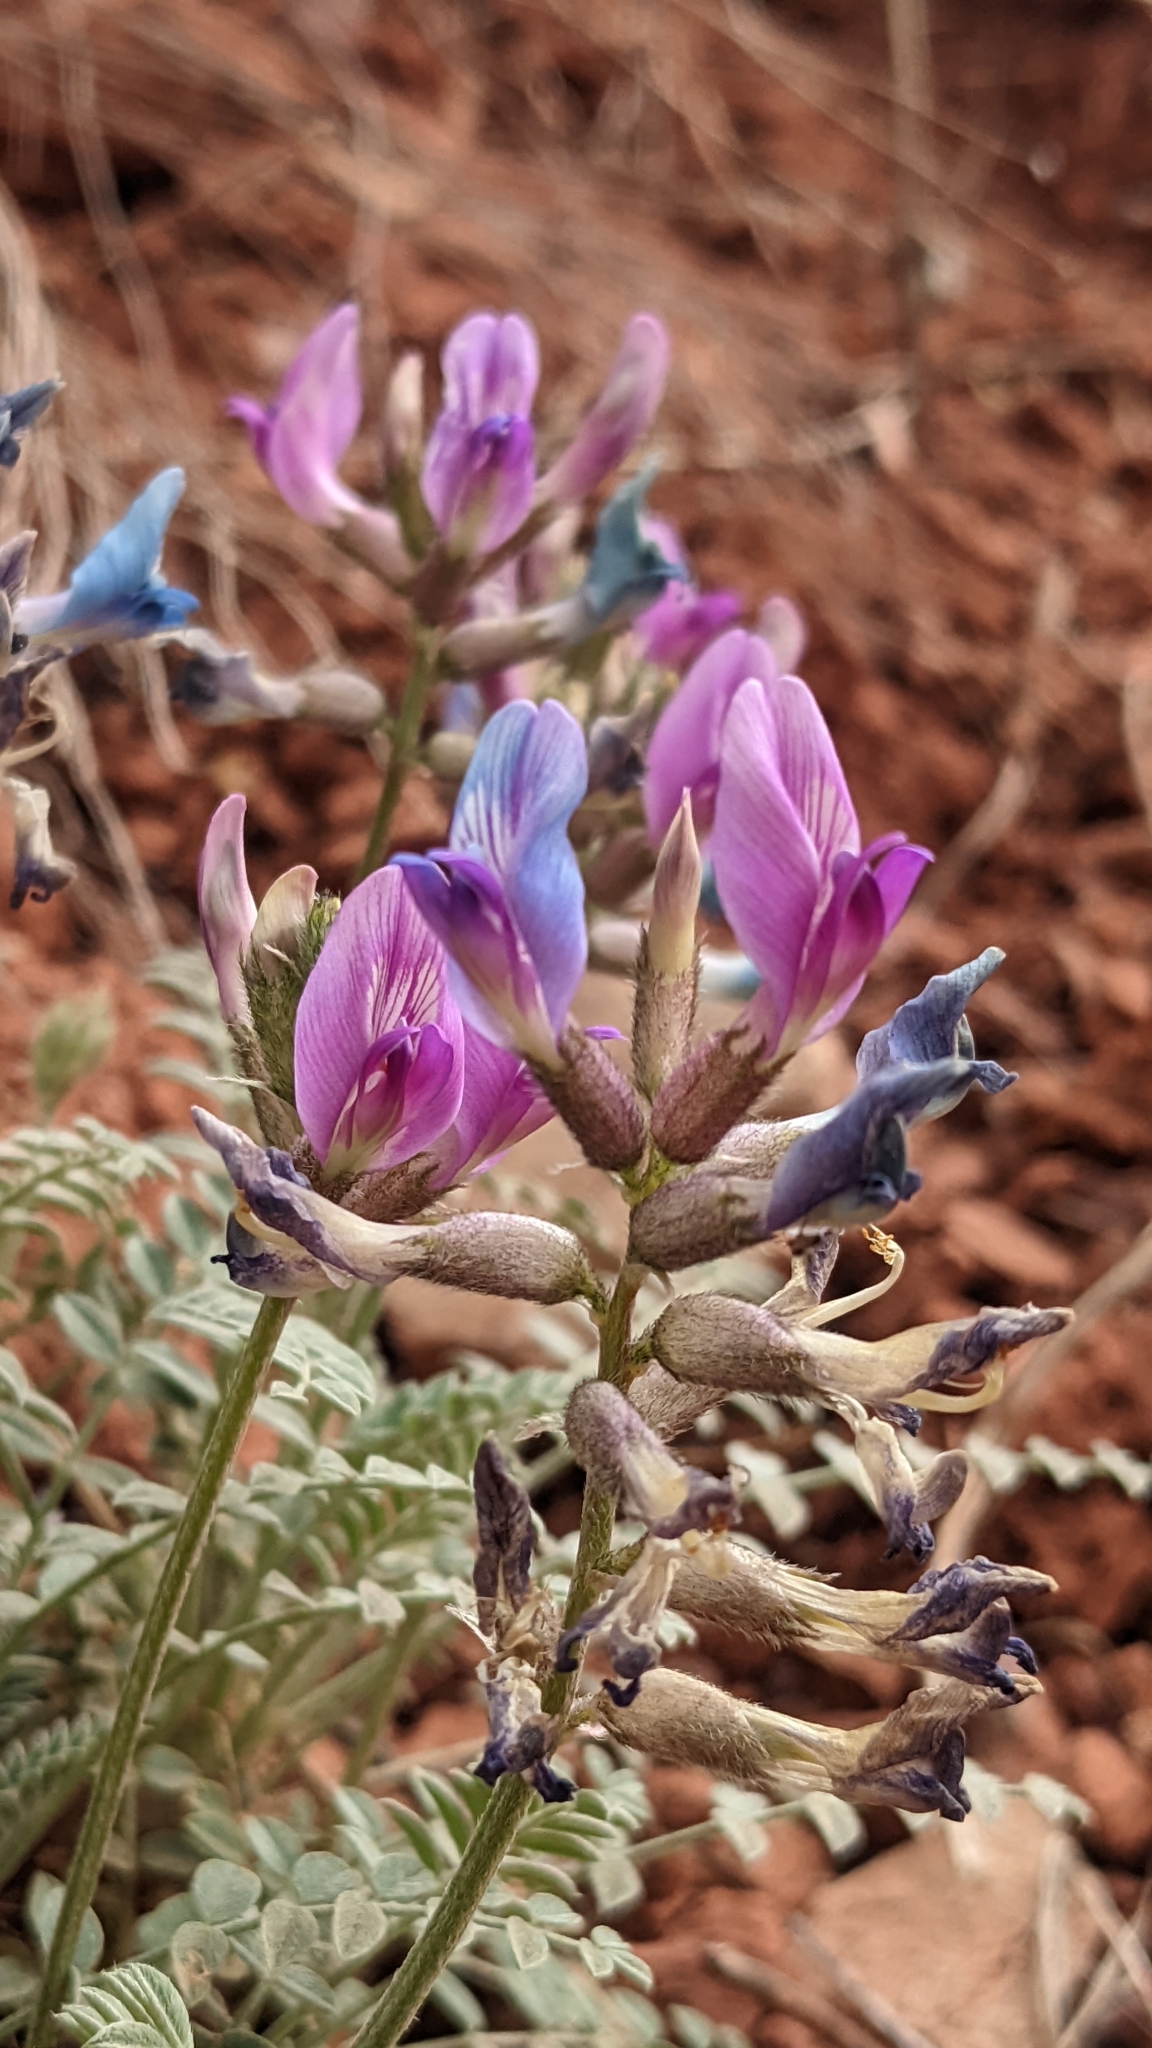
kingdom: Plantae
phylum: Tracheophyta
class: Magnoliopsida
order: Fabales
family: Fabaceae
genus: Astragalus
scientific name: Astragalus zionis
